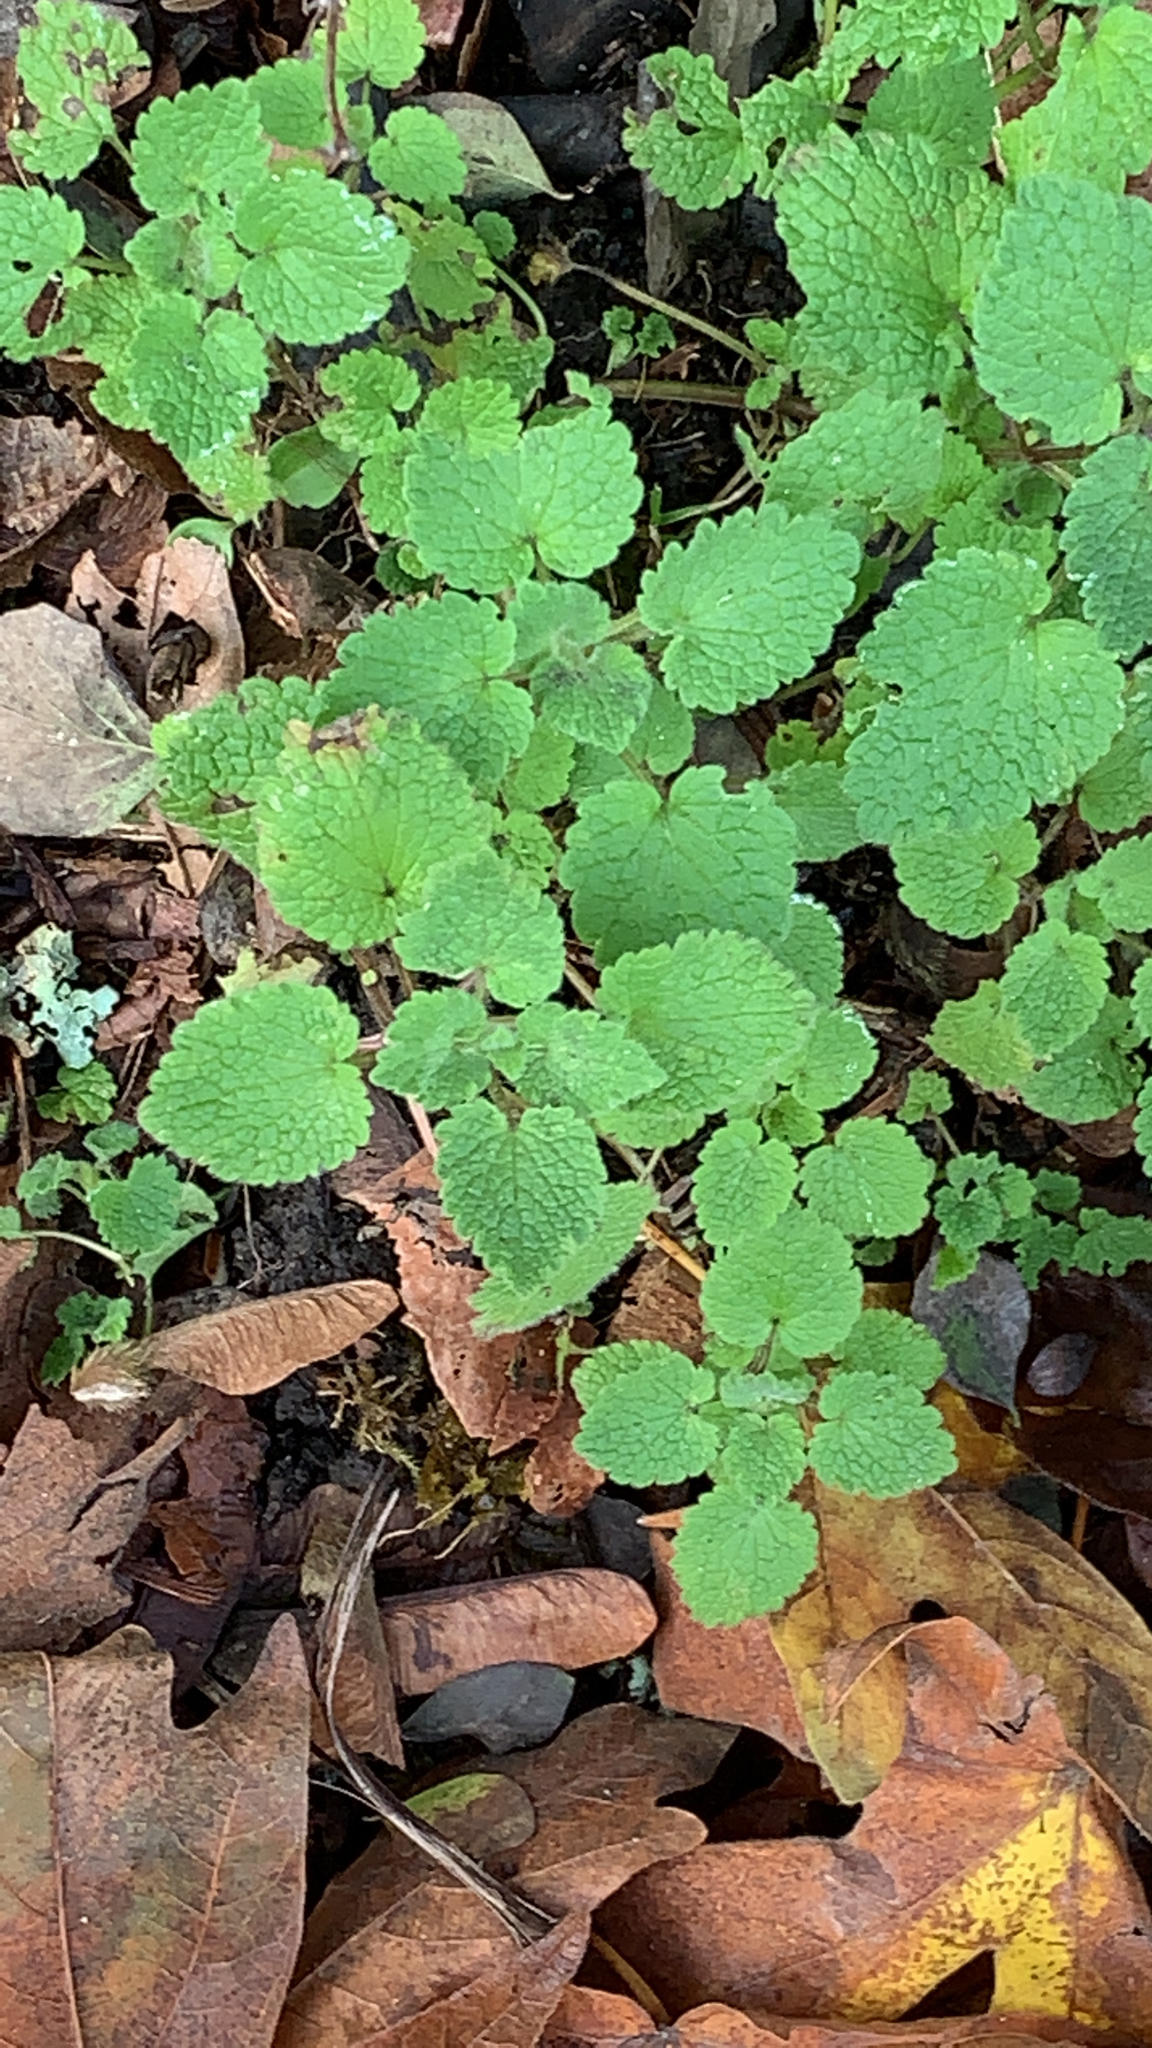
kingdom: Plantae
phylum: Tracheophyta
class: Magnoliopsida
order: Lamiales
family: Lamiaceae
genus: Lamium
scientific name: Lamium purpureum
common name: Red dead-nettle
